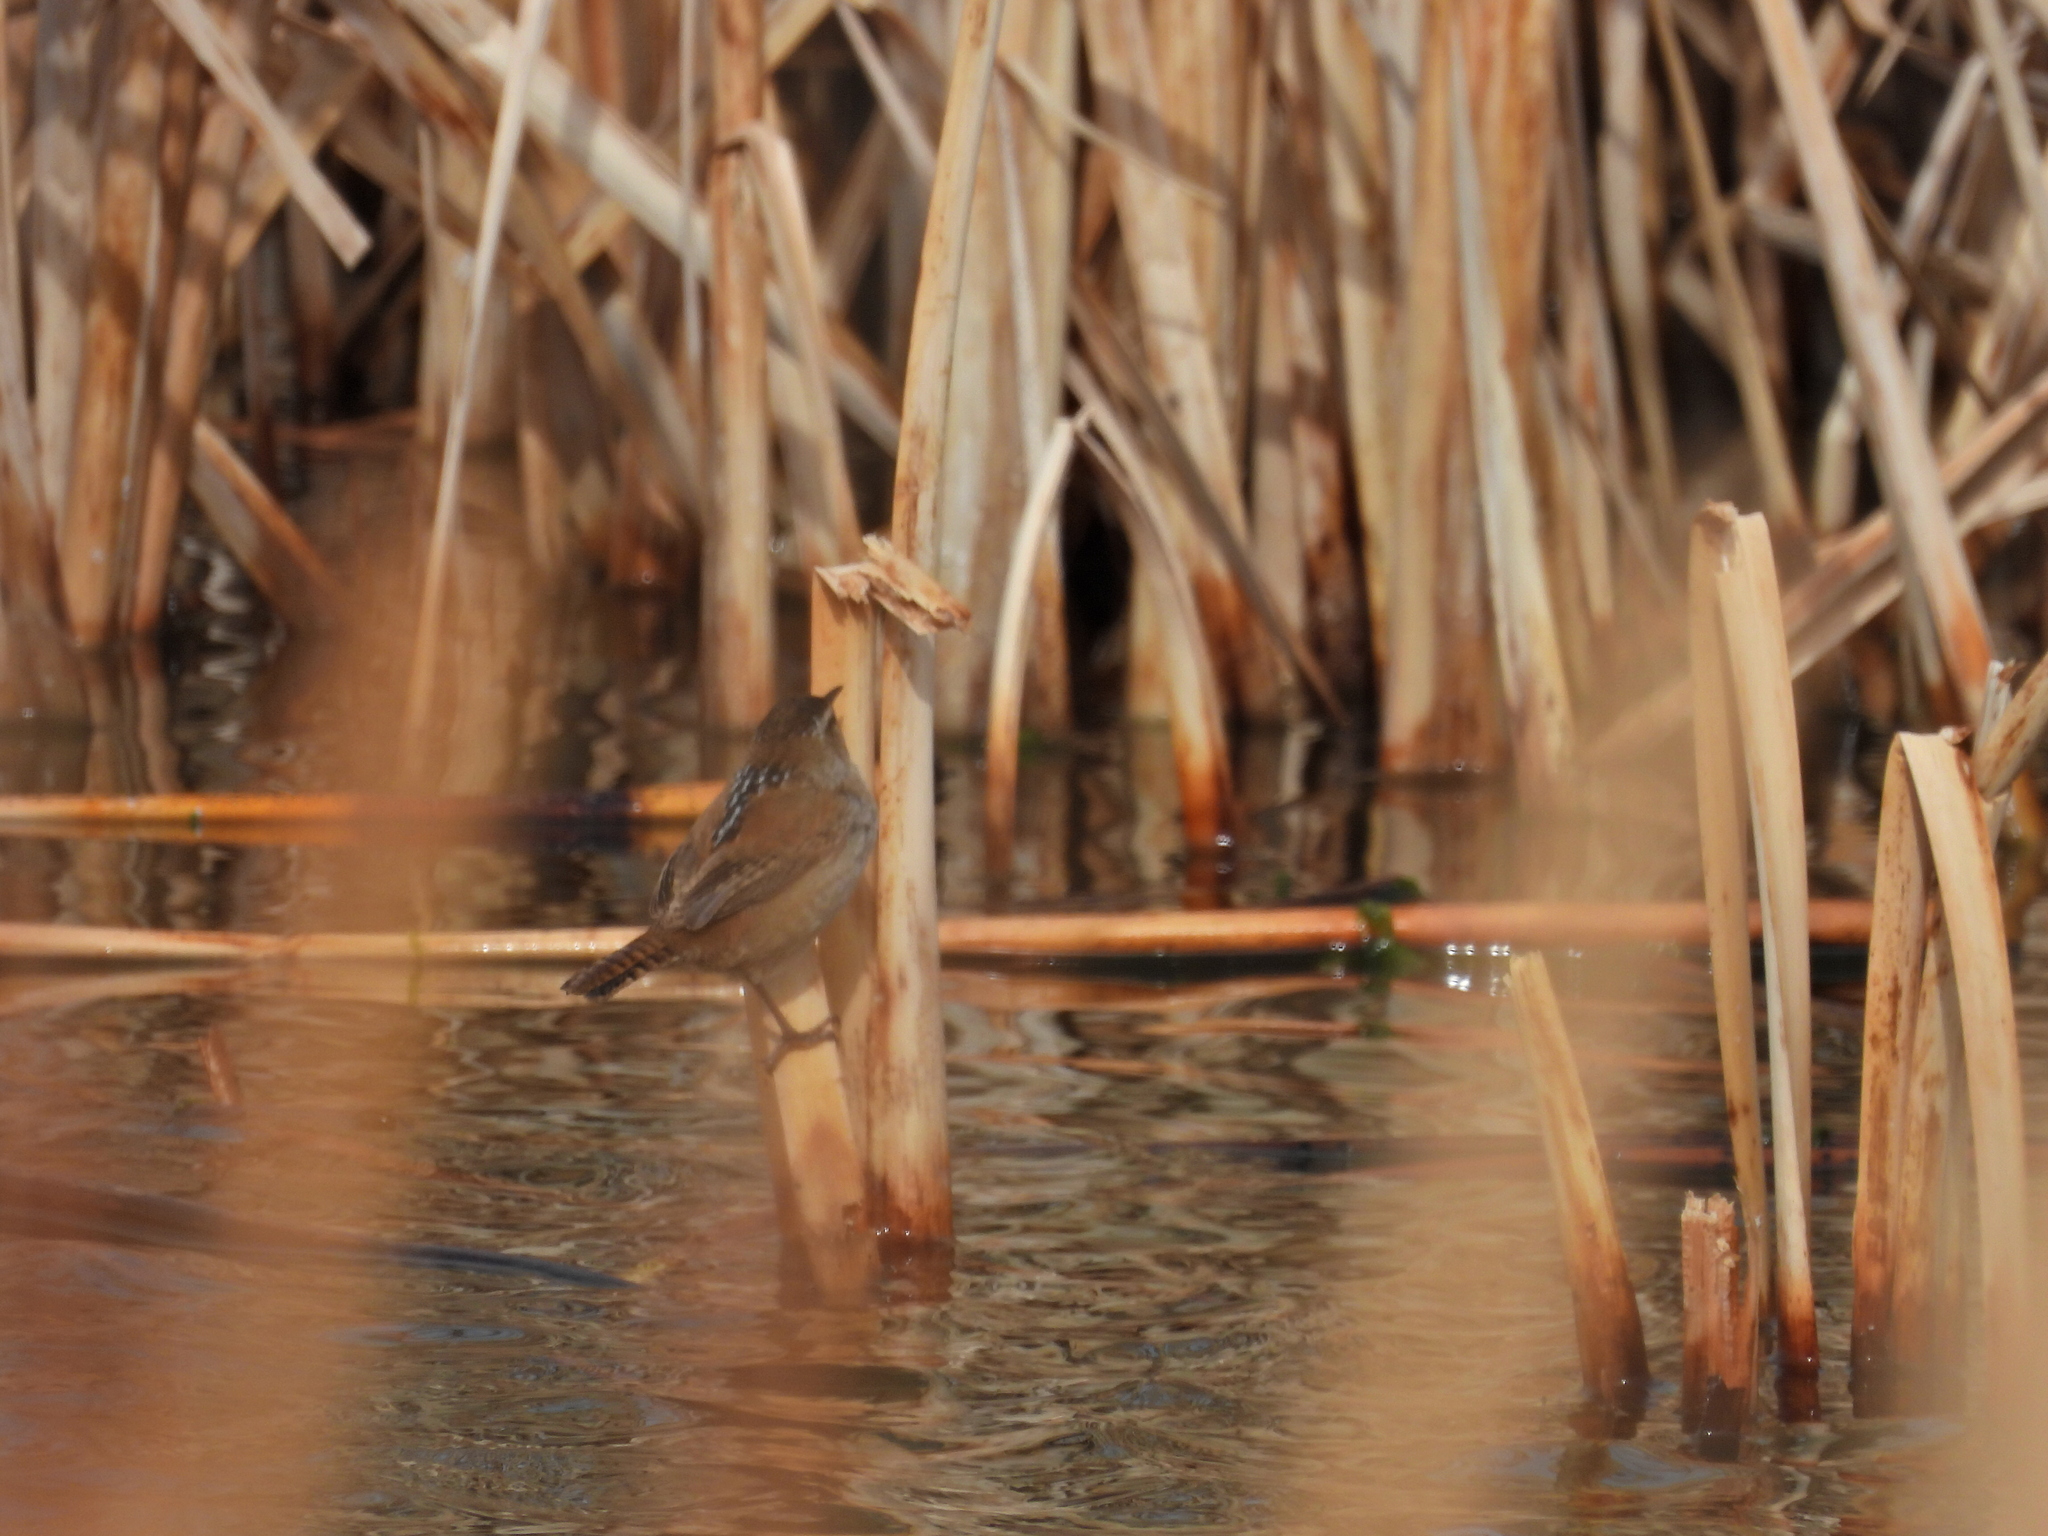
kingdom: Animalia
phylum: Chordata
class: Aves
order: Passeriformes
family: Troglodytidae
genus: Cistothorus
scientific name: Cistothorus palustris
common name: Marsh wren
